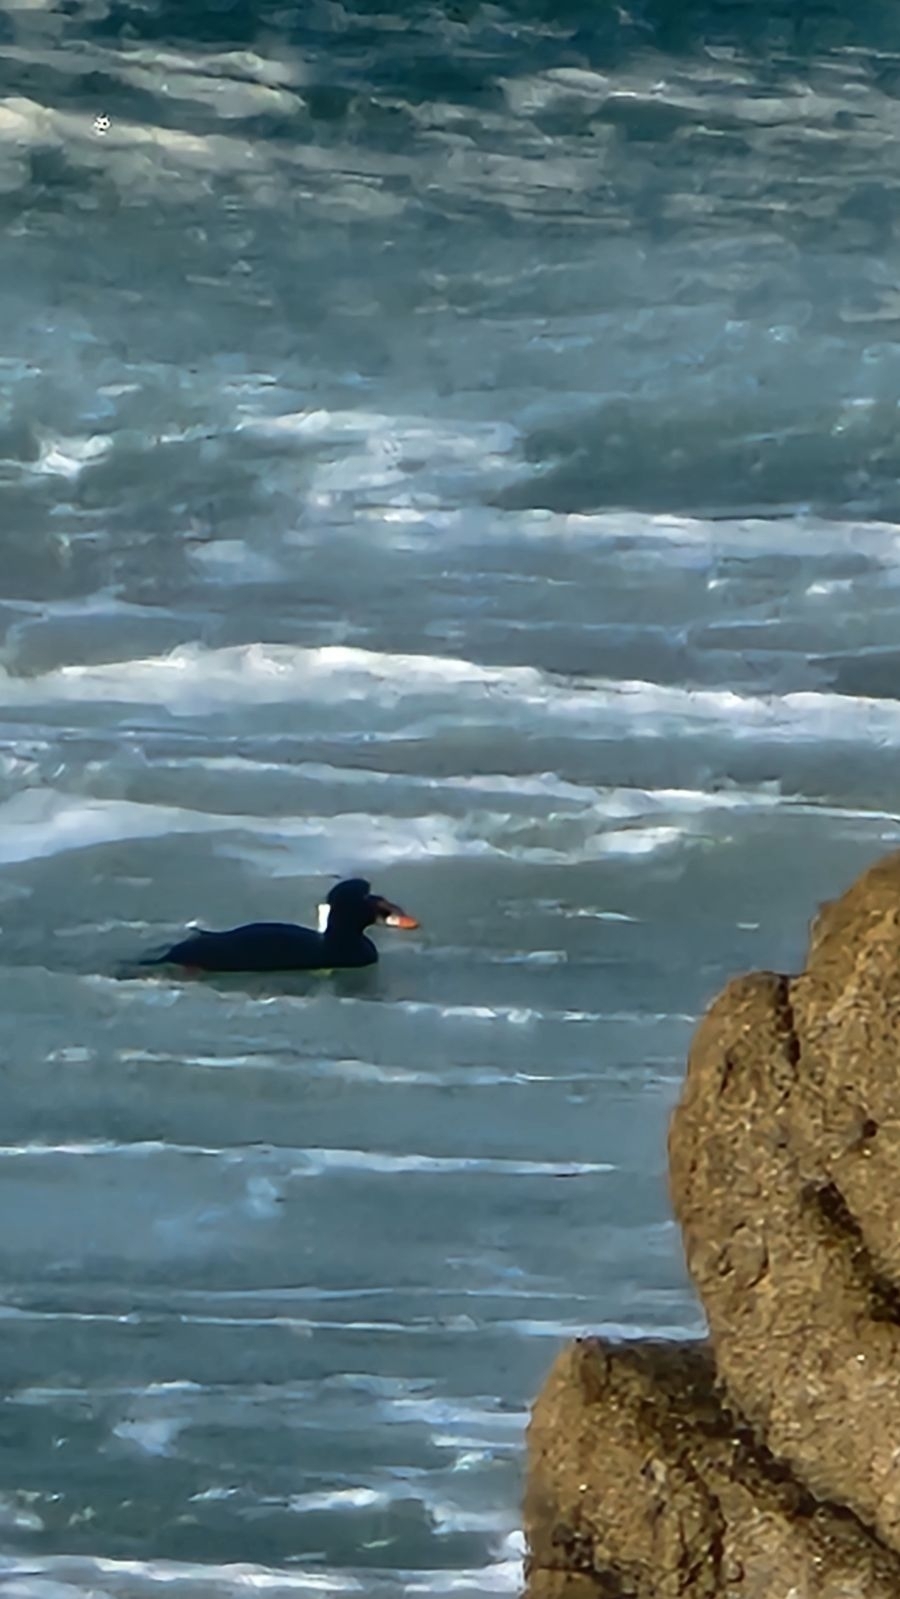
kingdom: Animalia
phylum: Chordata
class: Aves
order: Anseriformes
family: Anatidae
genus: Melanitta
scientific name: Melanitta perspicillata
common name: Surf scoter
